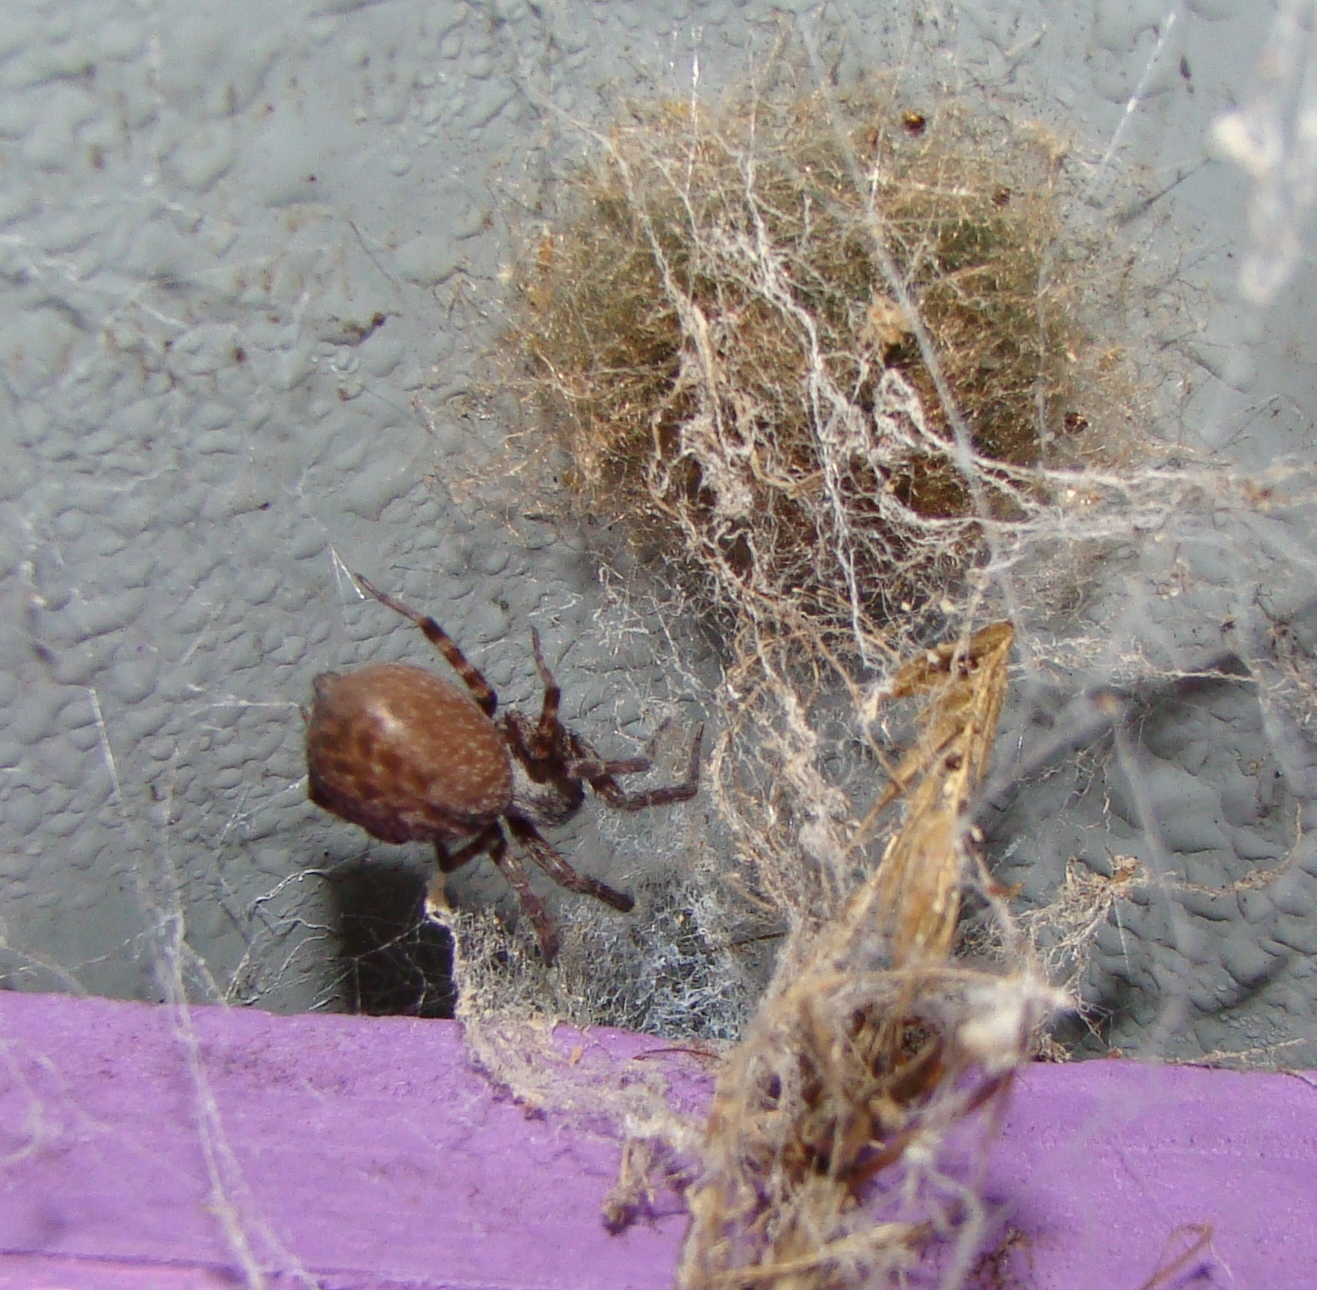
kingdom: Animalia
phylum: Arthropoda
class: Arachnida
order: Araneae
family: Desidae
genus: Badumna
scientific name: Badumna longinqua
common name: Gray house spider
